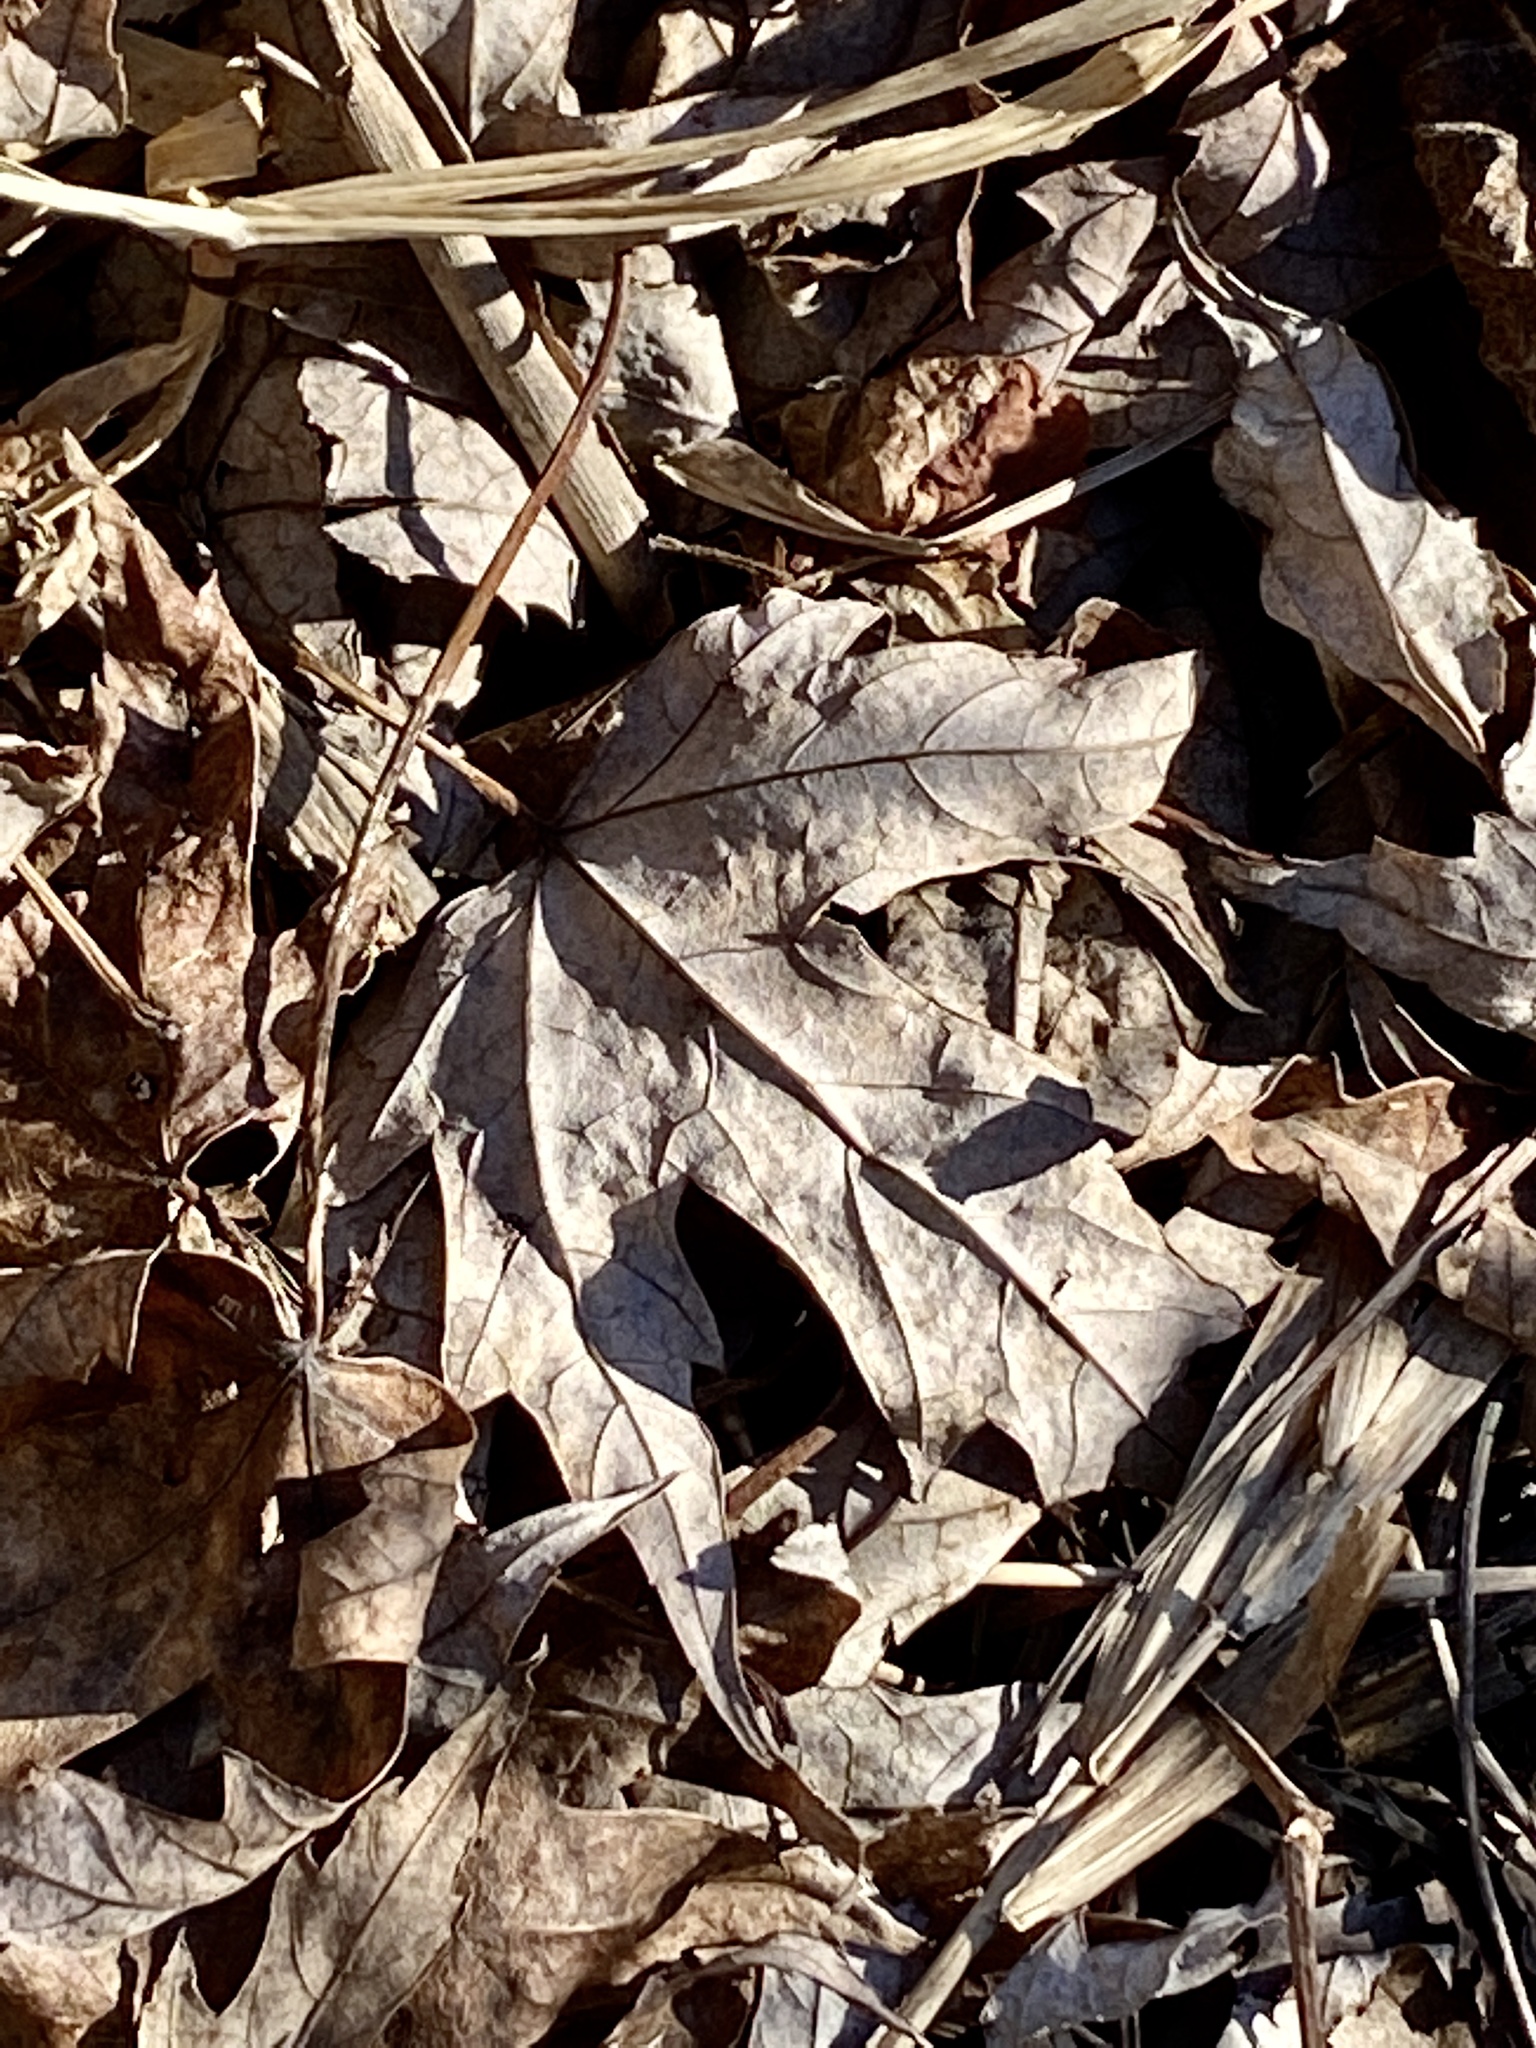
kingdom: Plantae
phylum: Tracheophyta
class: Magnoliopsida
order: Sapindales
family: Sapindaceae
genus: Acer
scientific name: Acer saccharinum
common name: Silver maple
